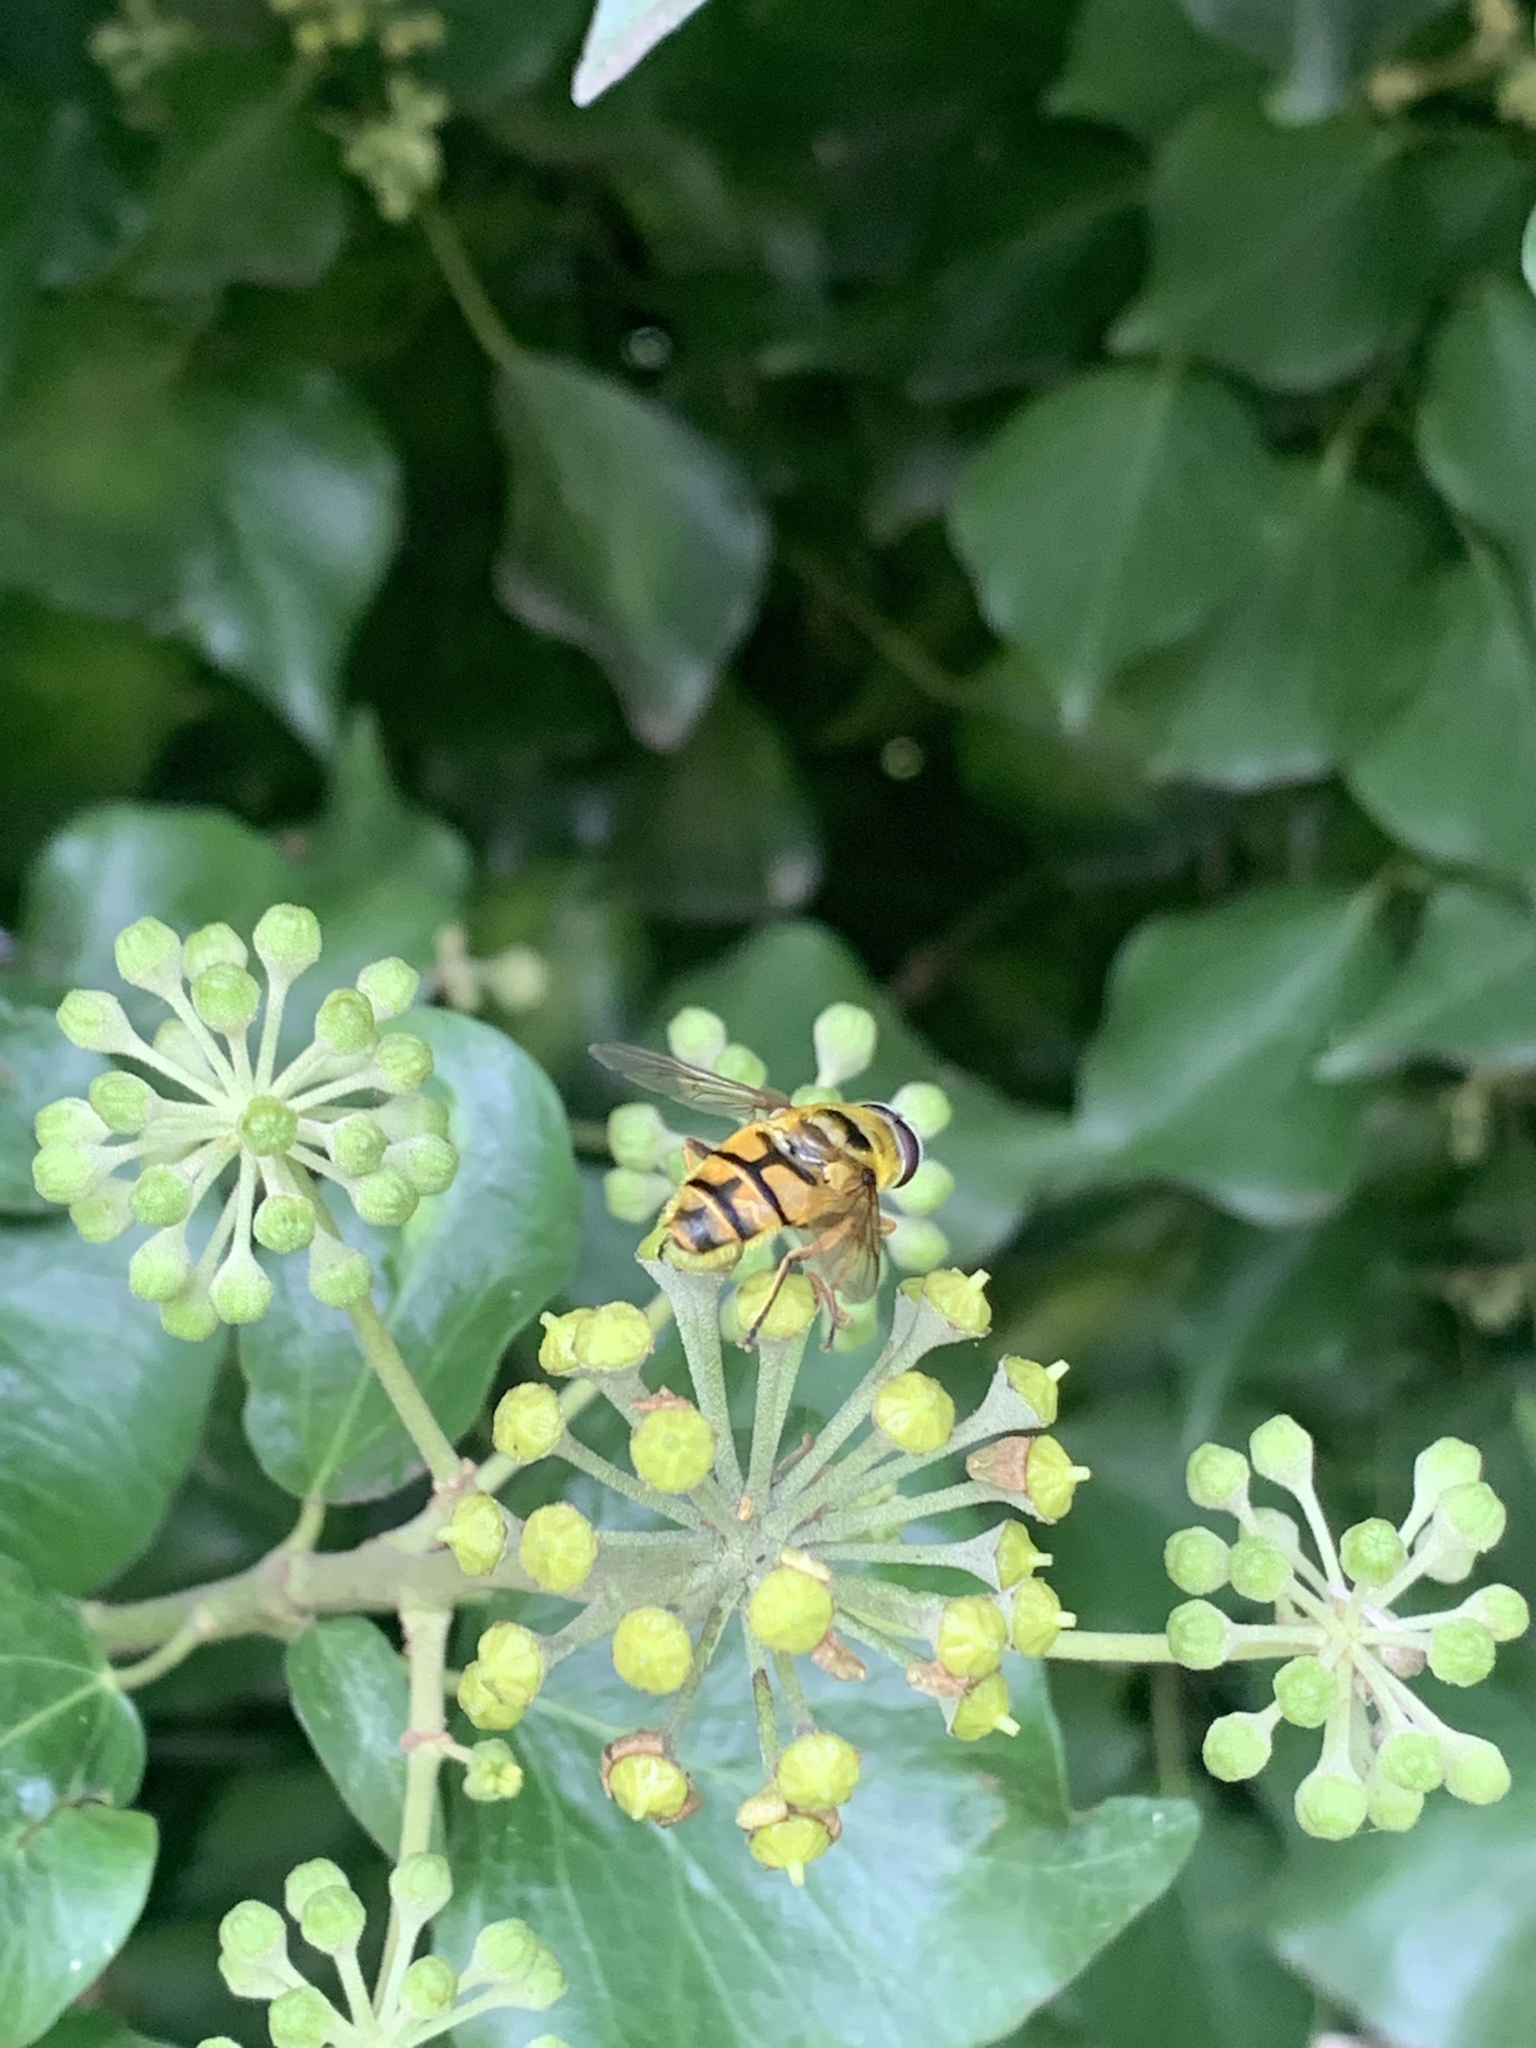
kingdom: Animalia
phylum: Arthropoda
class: Insecta
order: Diptera
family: Syrphidae
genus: Myathropa
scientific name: Myathropa florea
